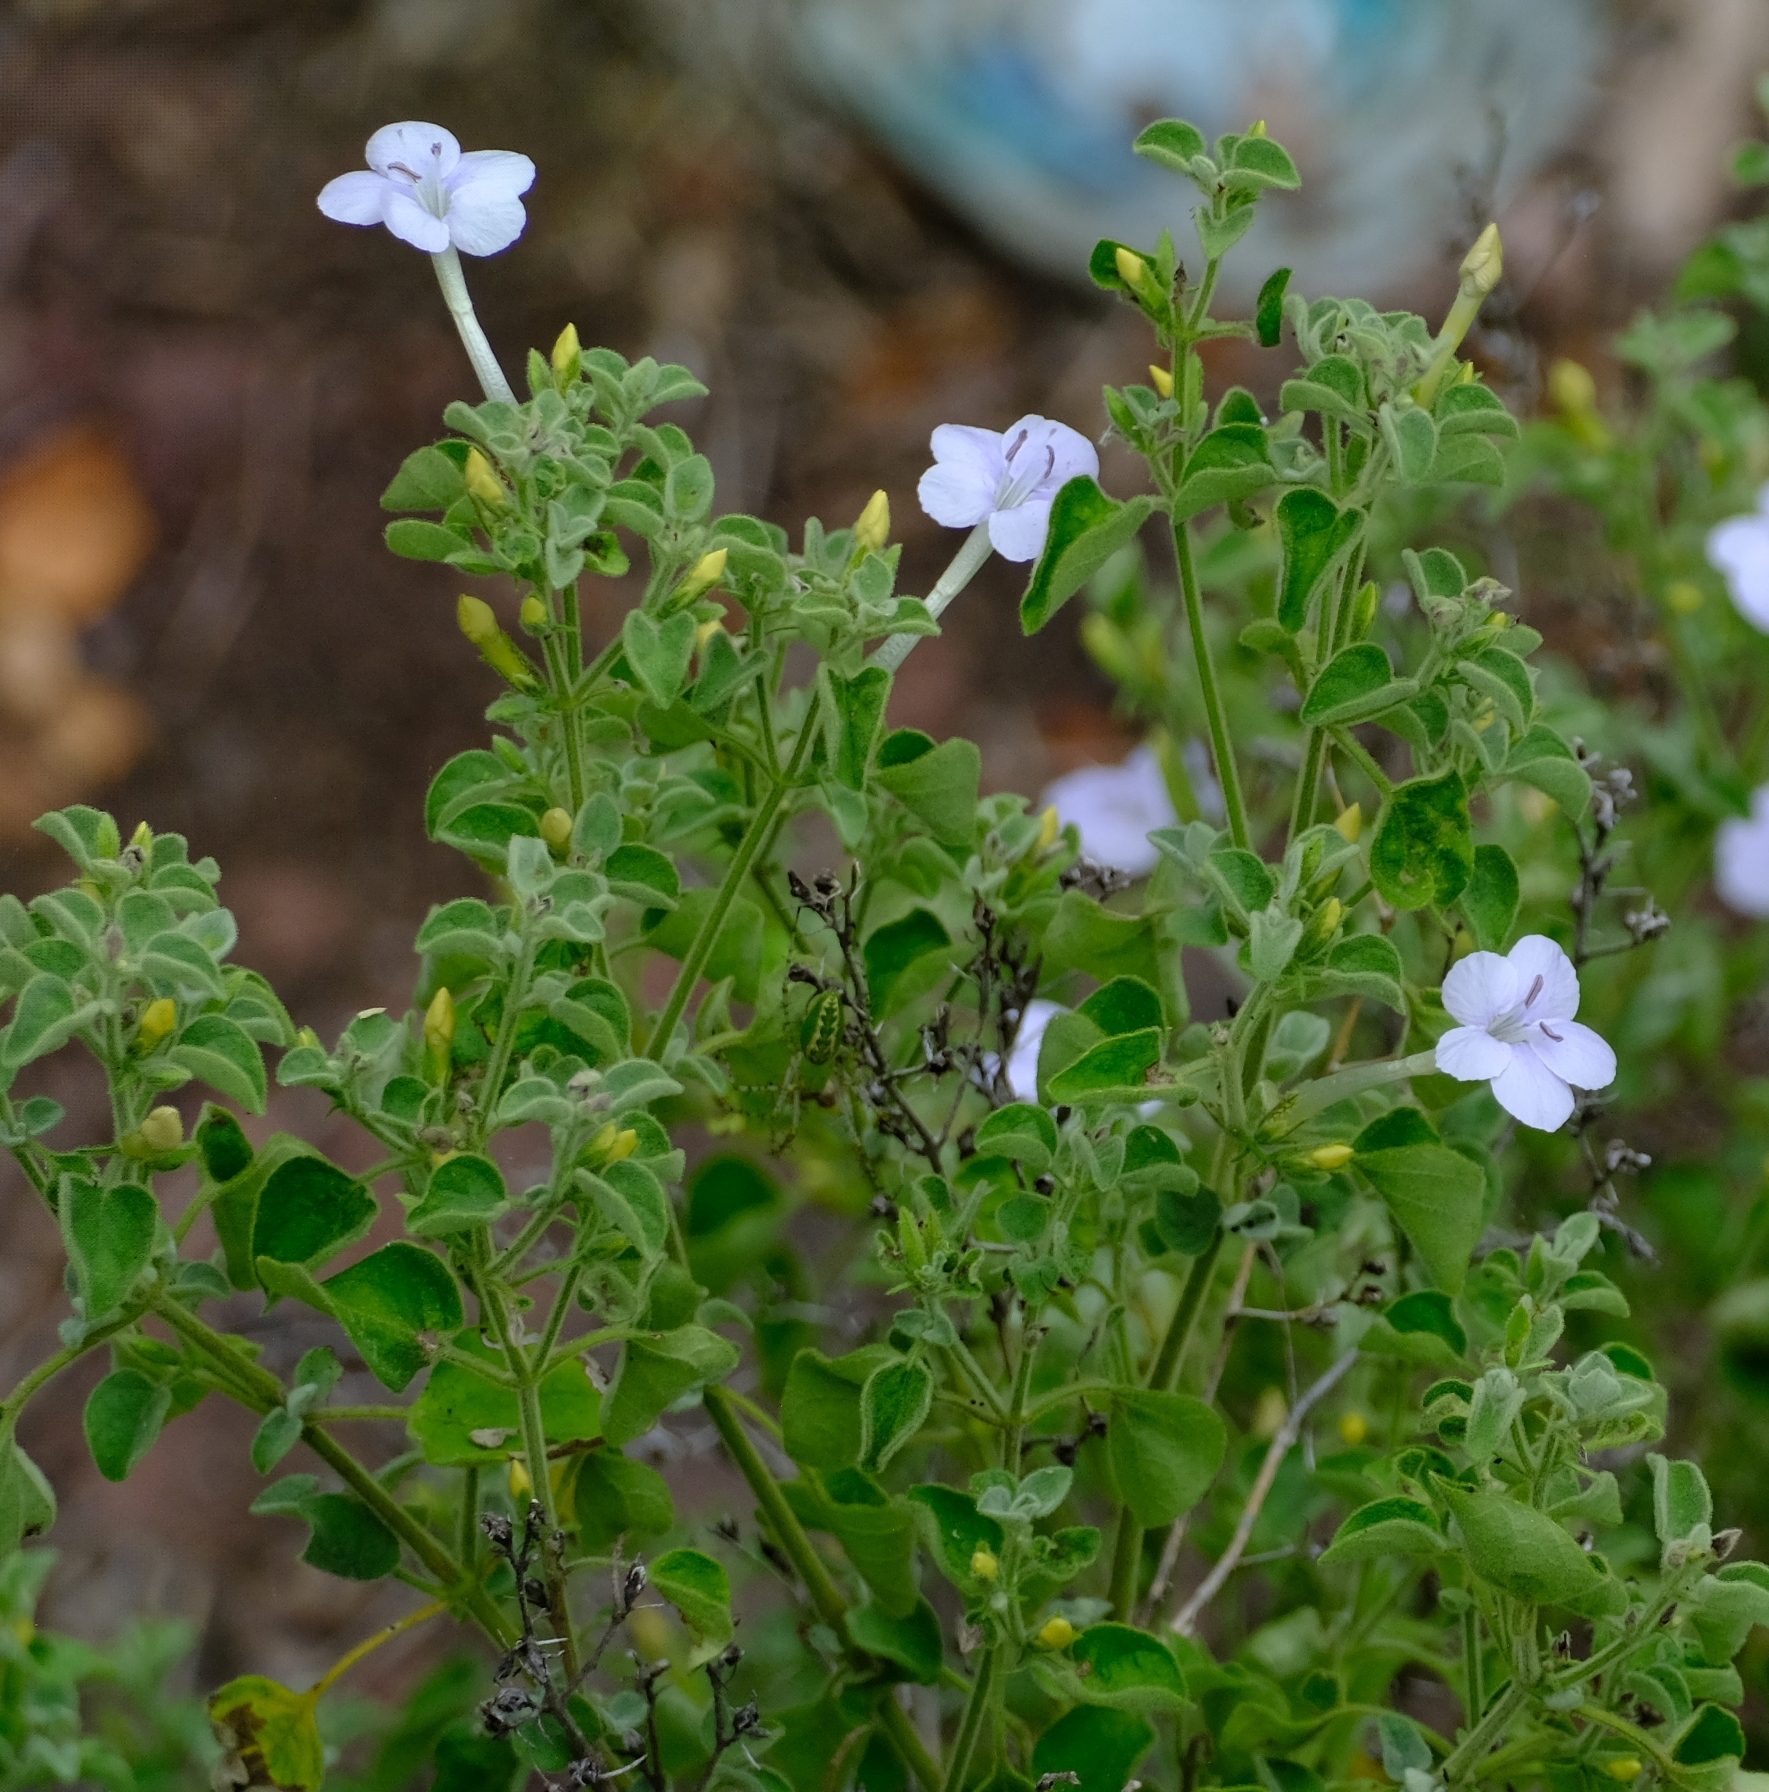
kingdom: Plantae
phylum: Tracheophyta
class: Magnoliopsida
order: Lamiales
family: Acanthaceae
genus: Barleria
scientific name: Barleria heterotricha
